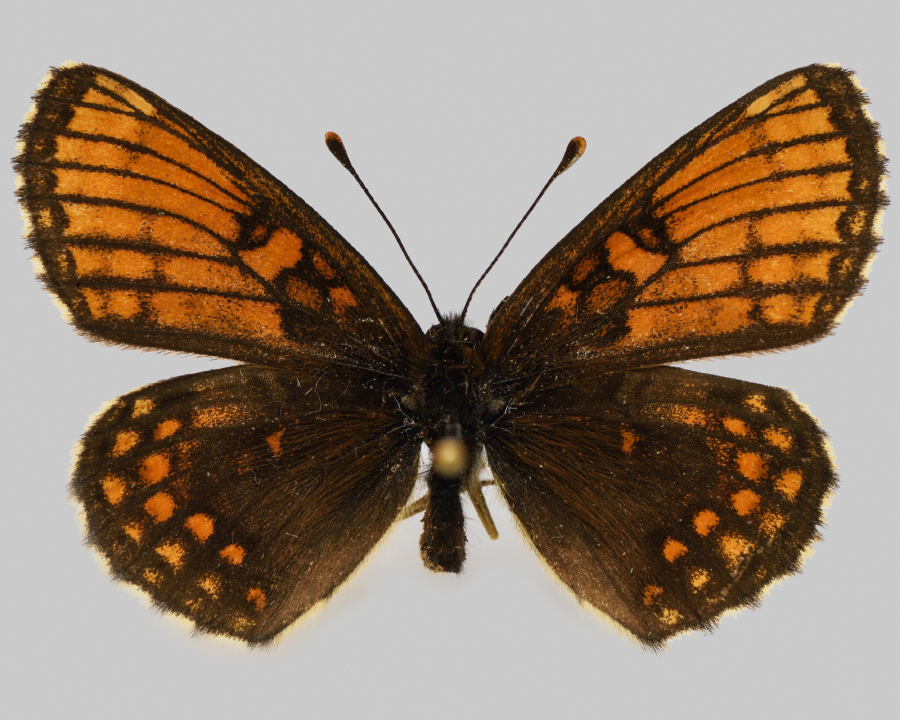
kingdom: Animalia
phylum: Arthropoda
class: Insecta
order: Lepidoptera
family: Nymphalidae
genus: Mellicta
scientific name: Mellicta britomartis
